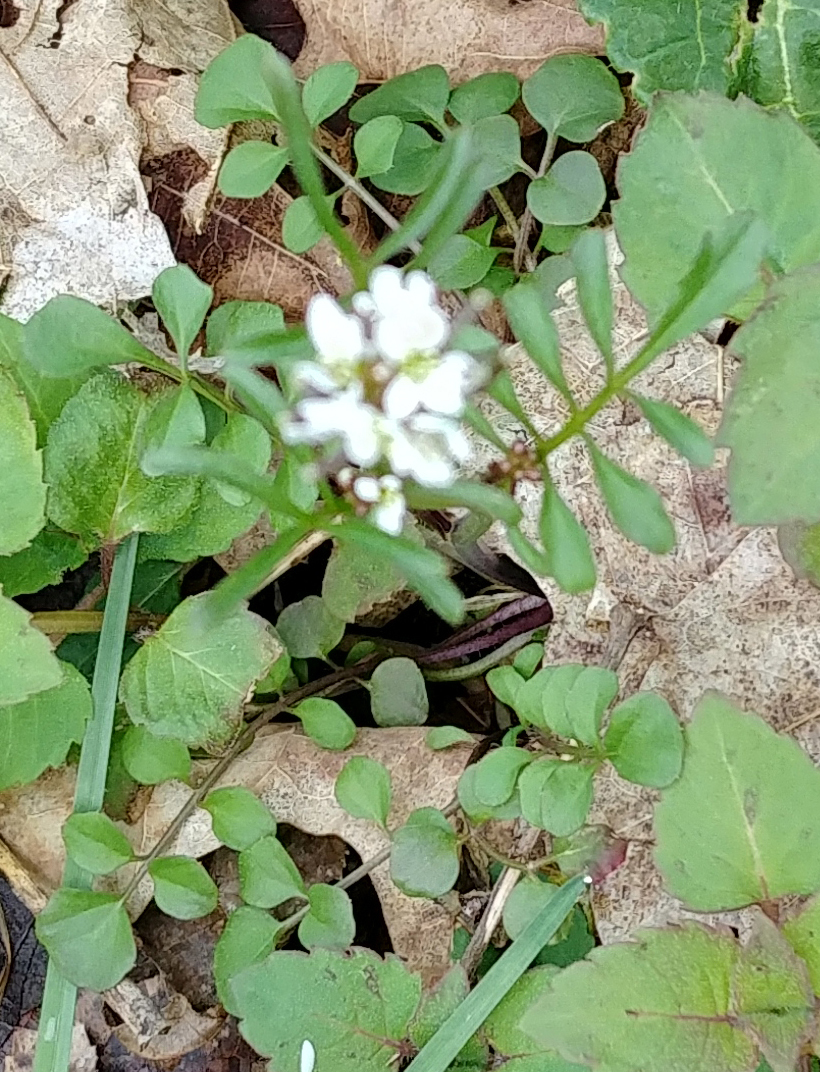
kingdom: Plantae
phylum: Tracheophyta
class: Magnoliopsida
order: Brassicales
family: Brassicaceae
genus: Cardamine
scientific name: Cardamine hirsuta
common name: Hairy bittercress
